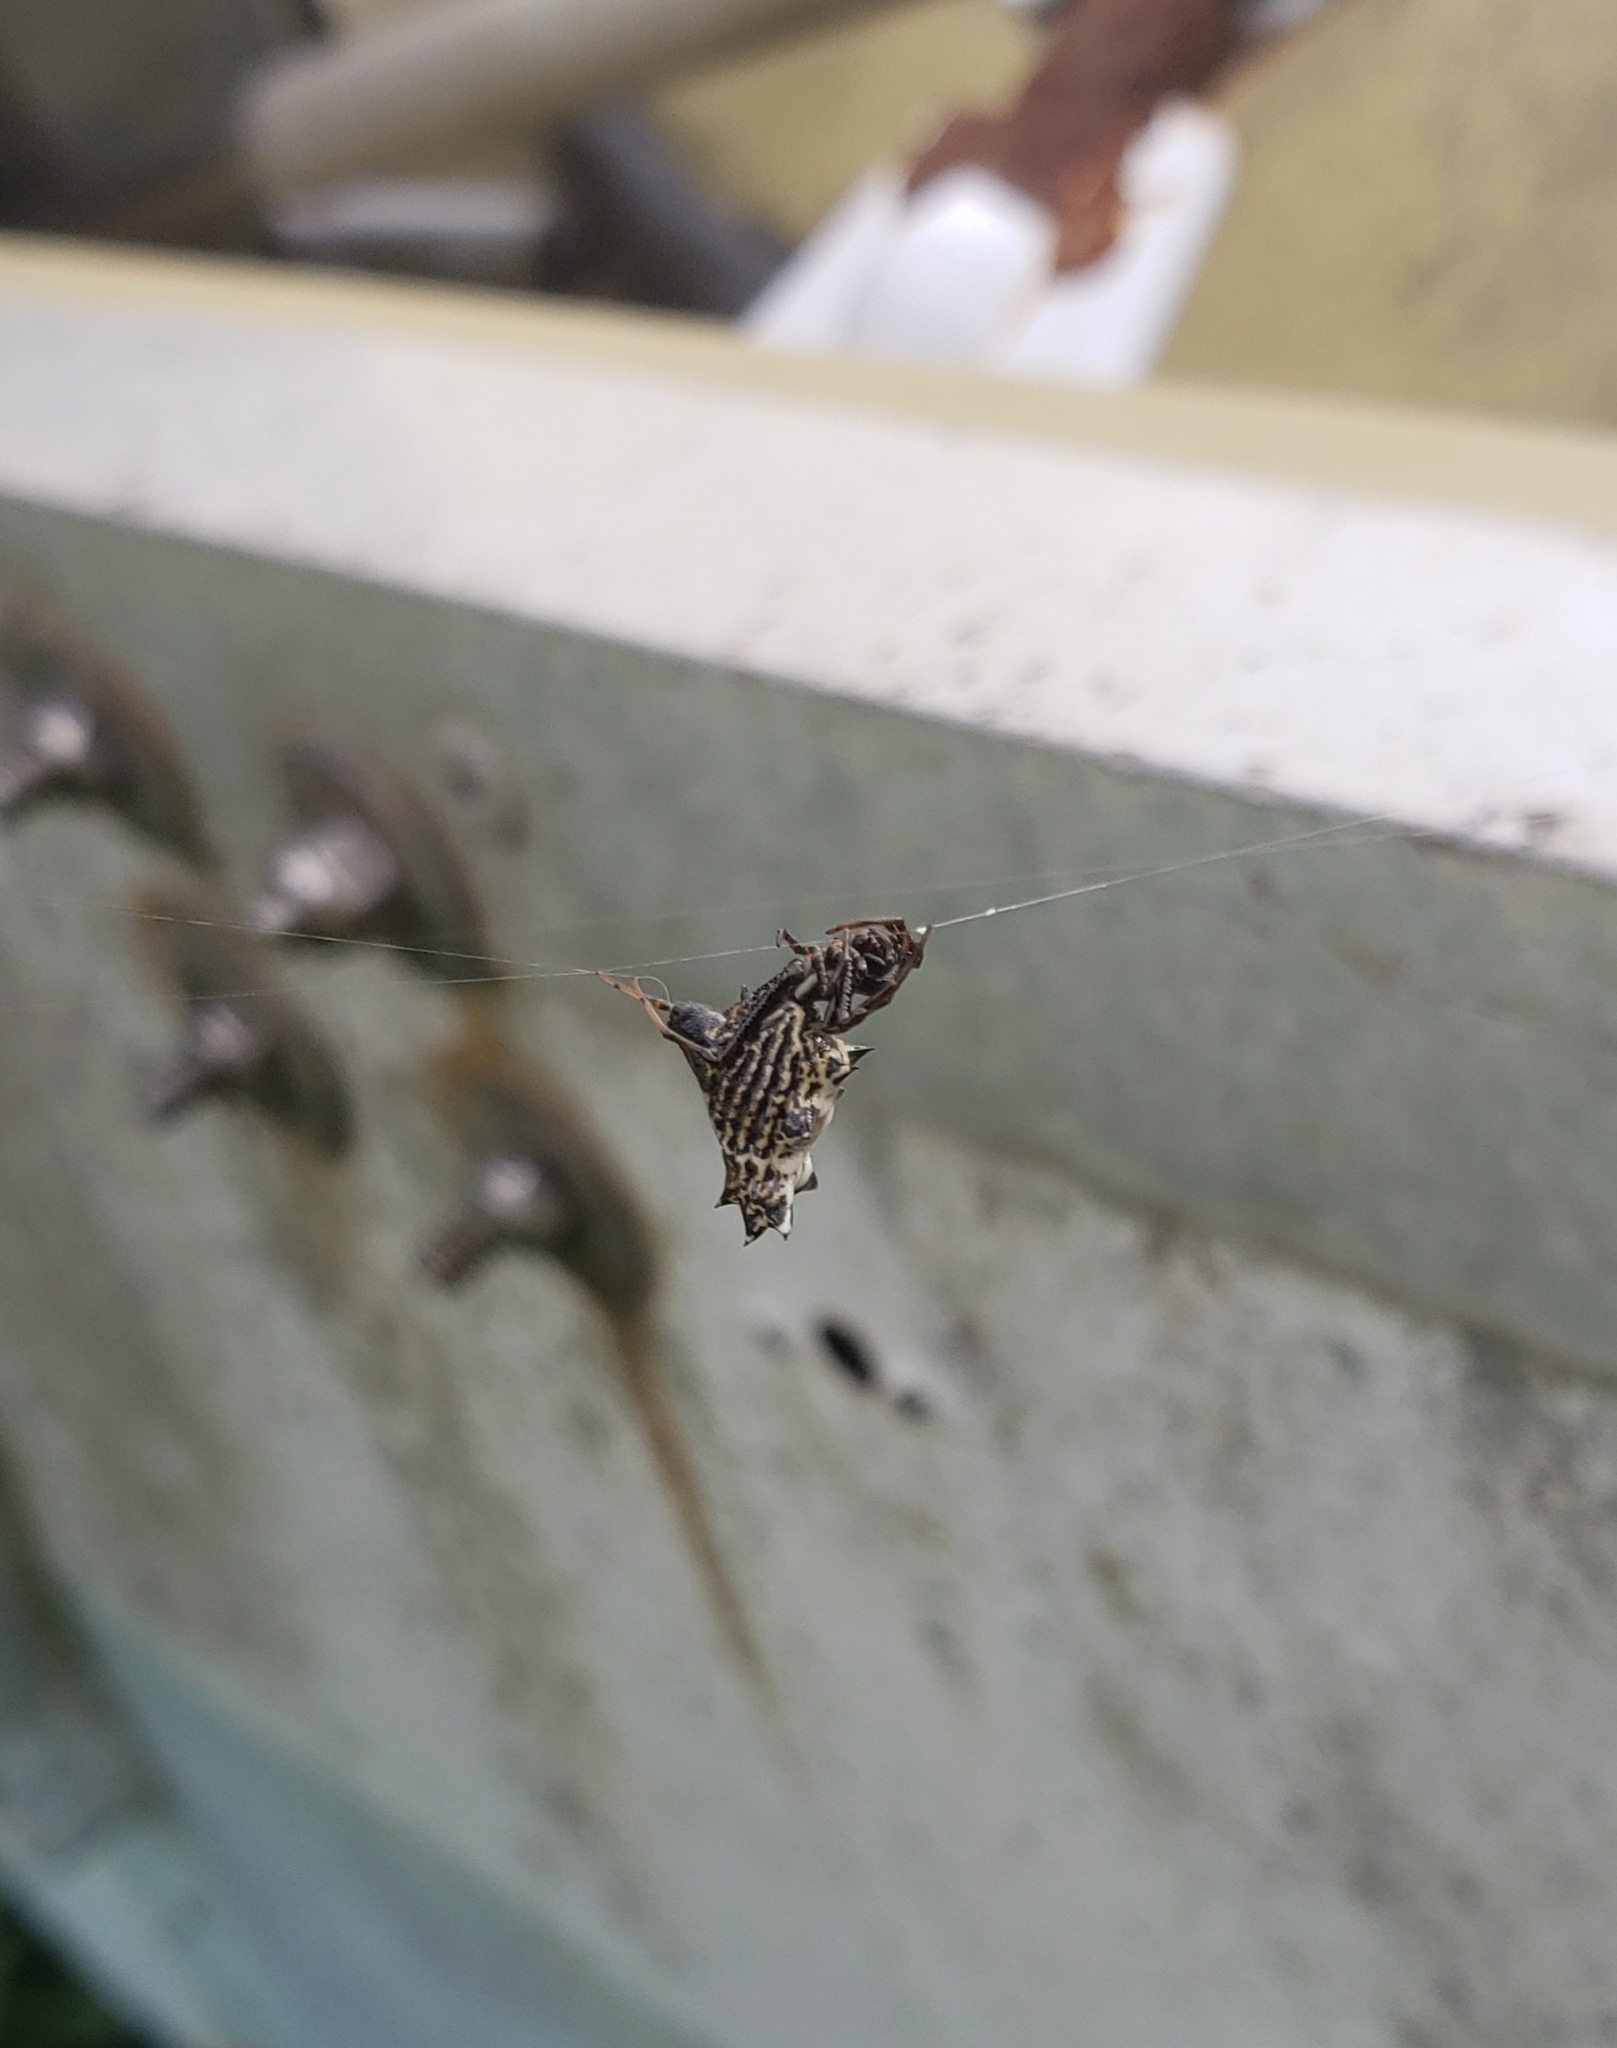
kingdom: Animalia
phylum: Arthropoda
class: Arachnida
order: Araneae
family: Araneidae
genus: Micrathena
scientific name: Micrathena gracilis
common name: Orb weavers
